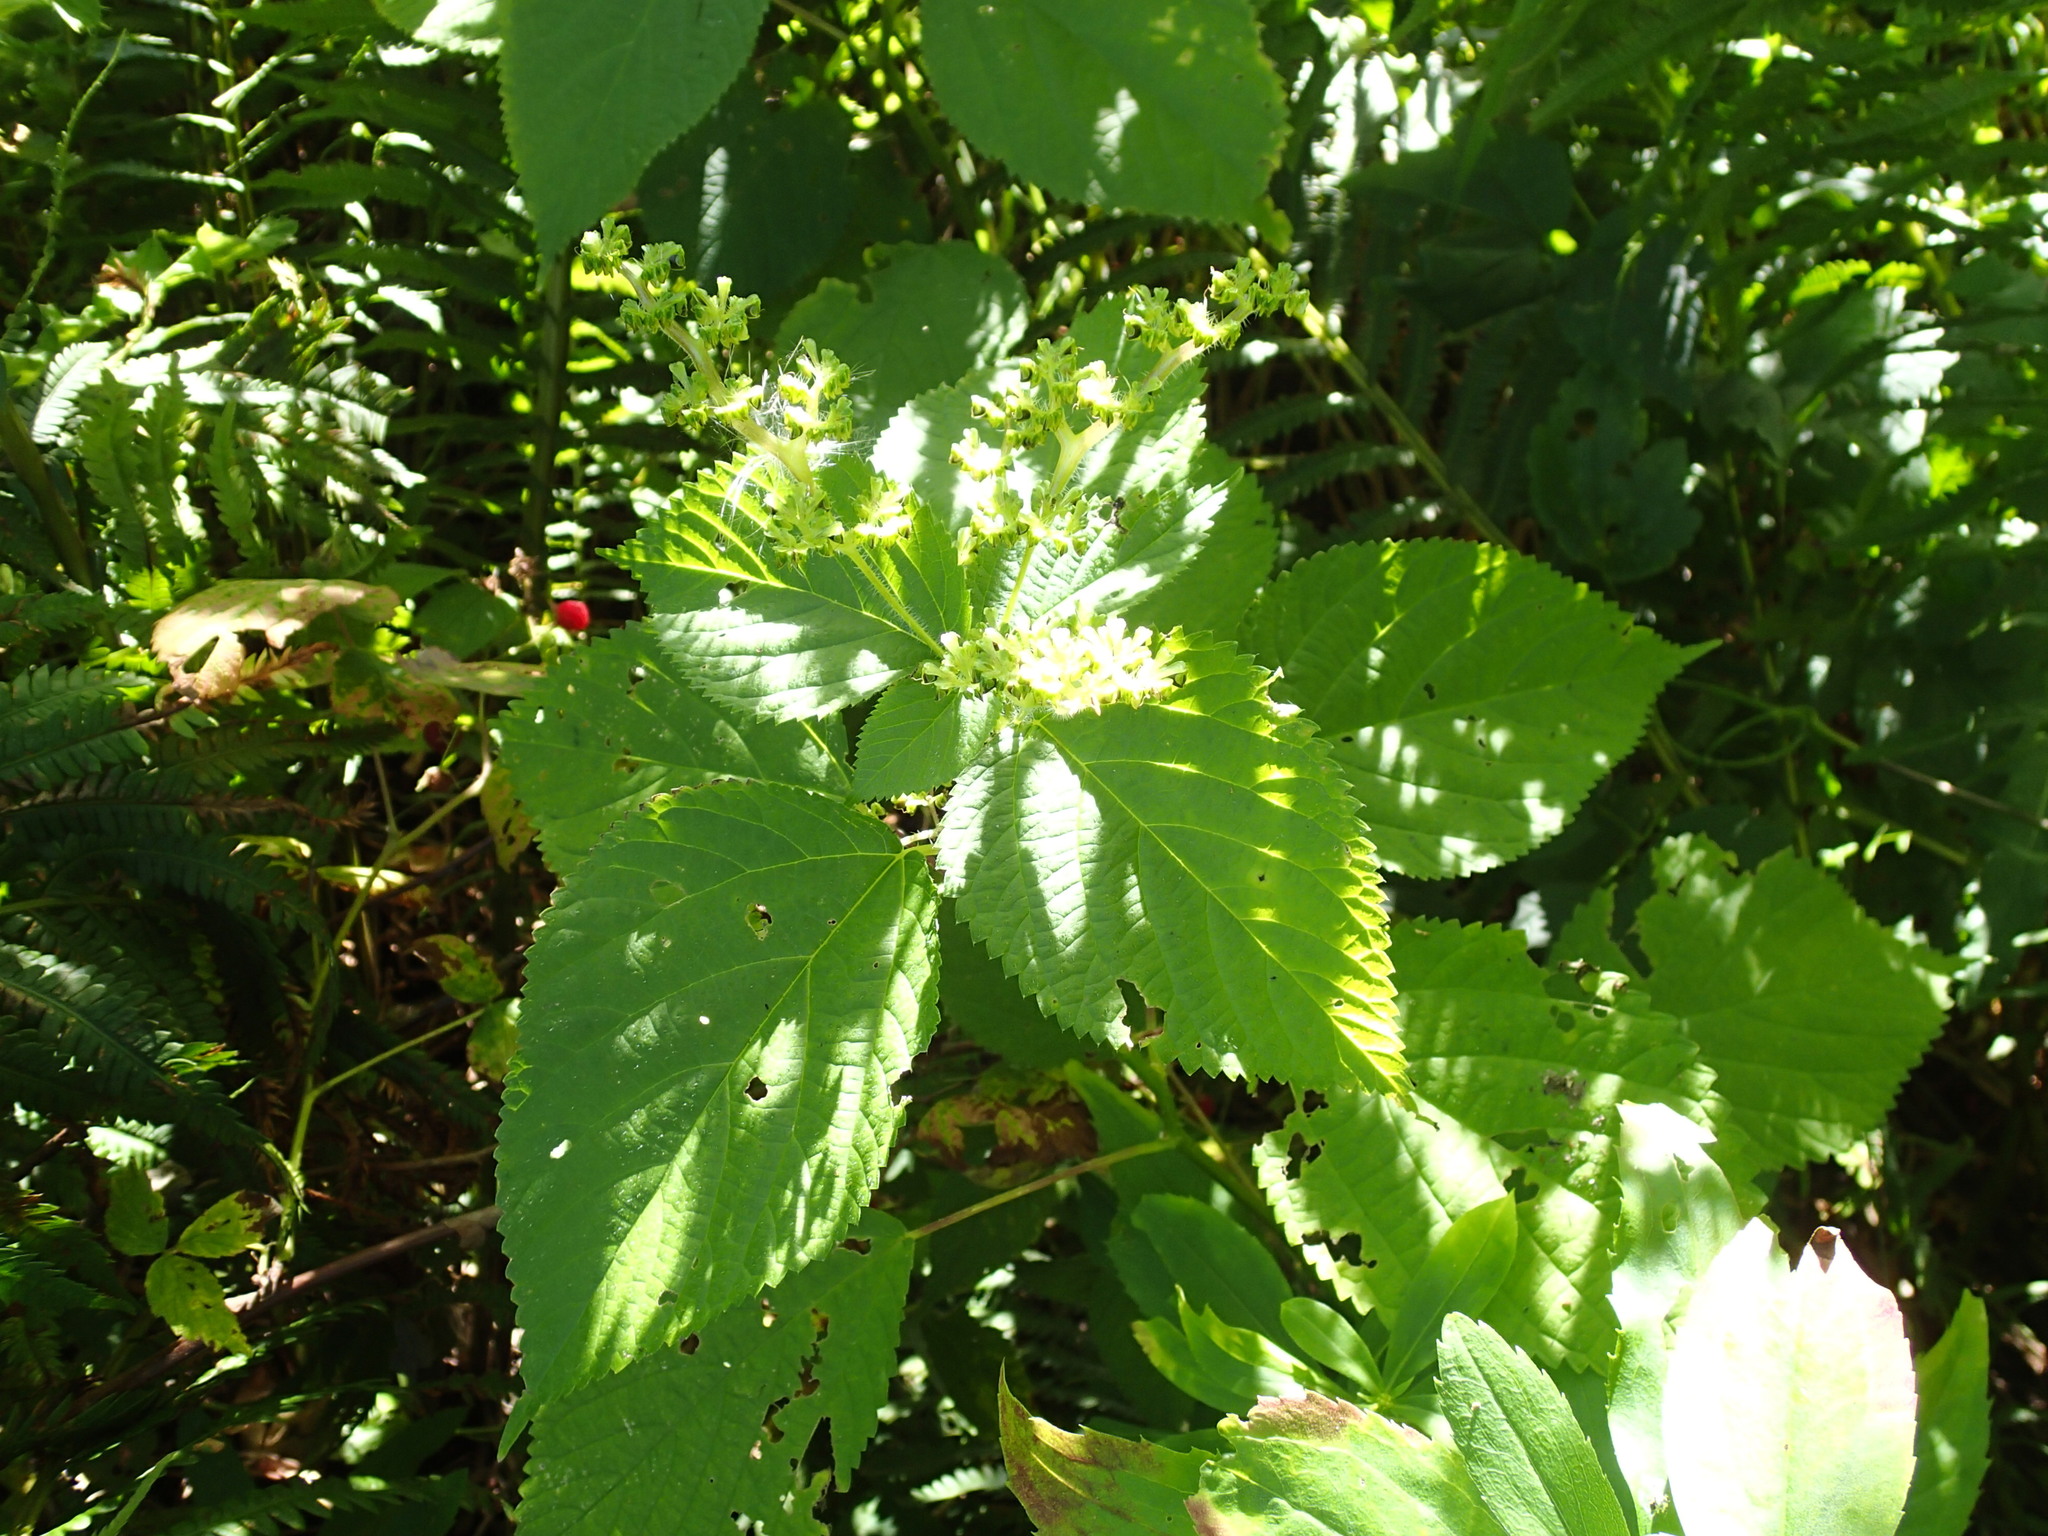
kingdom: Plantae
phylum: Tracheophyta
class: Magnoliopsida
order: Rosales
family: Urticaceae
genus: Laportea
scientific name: Laportea canadensis
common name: Canada nettle
